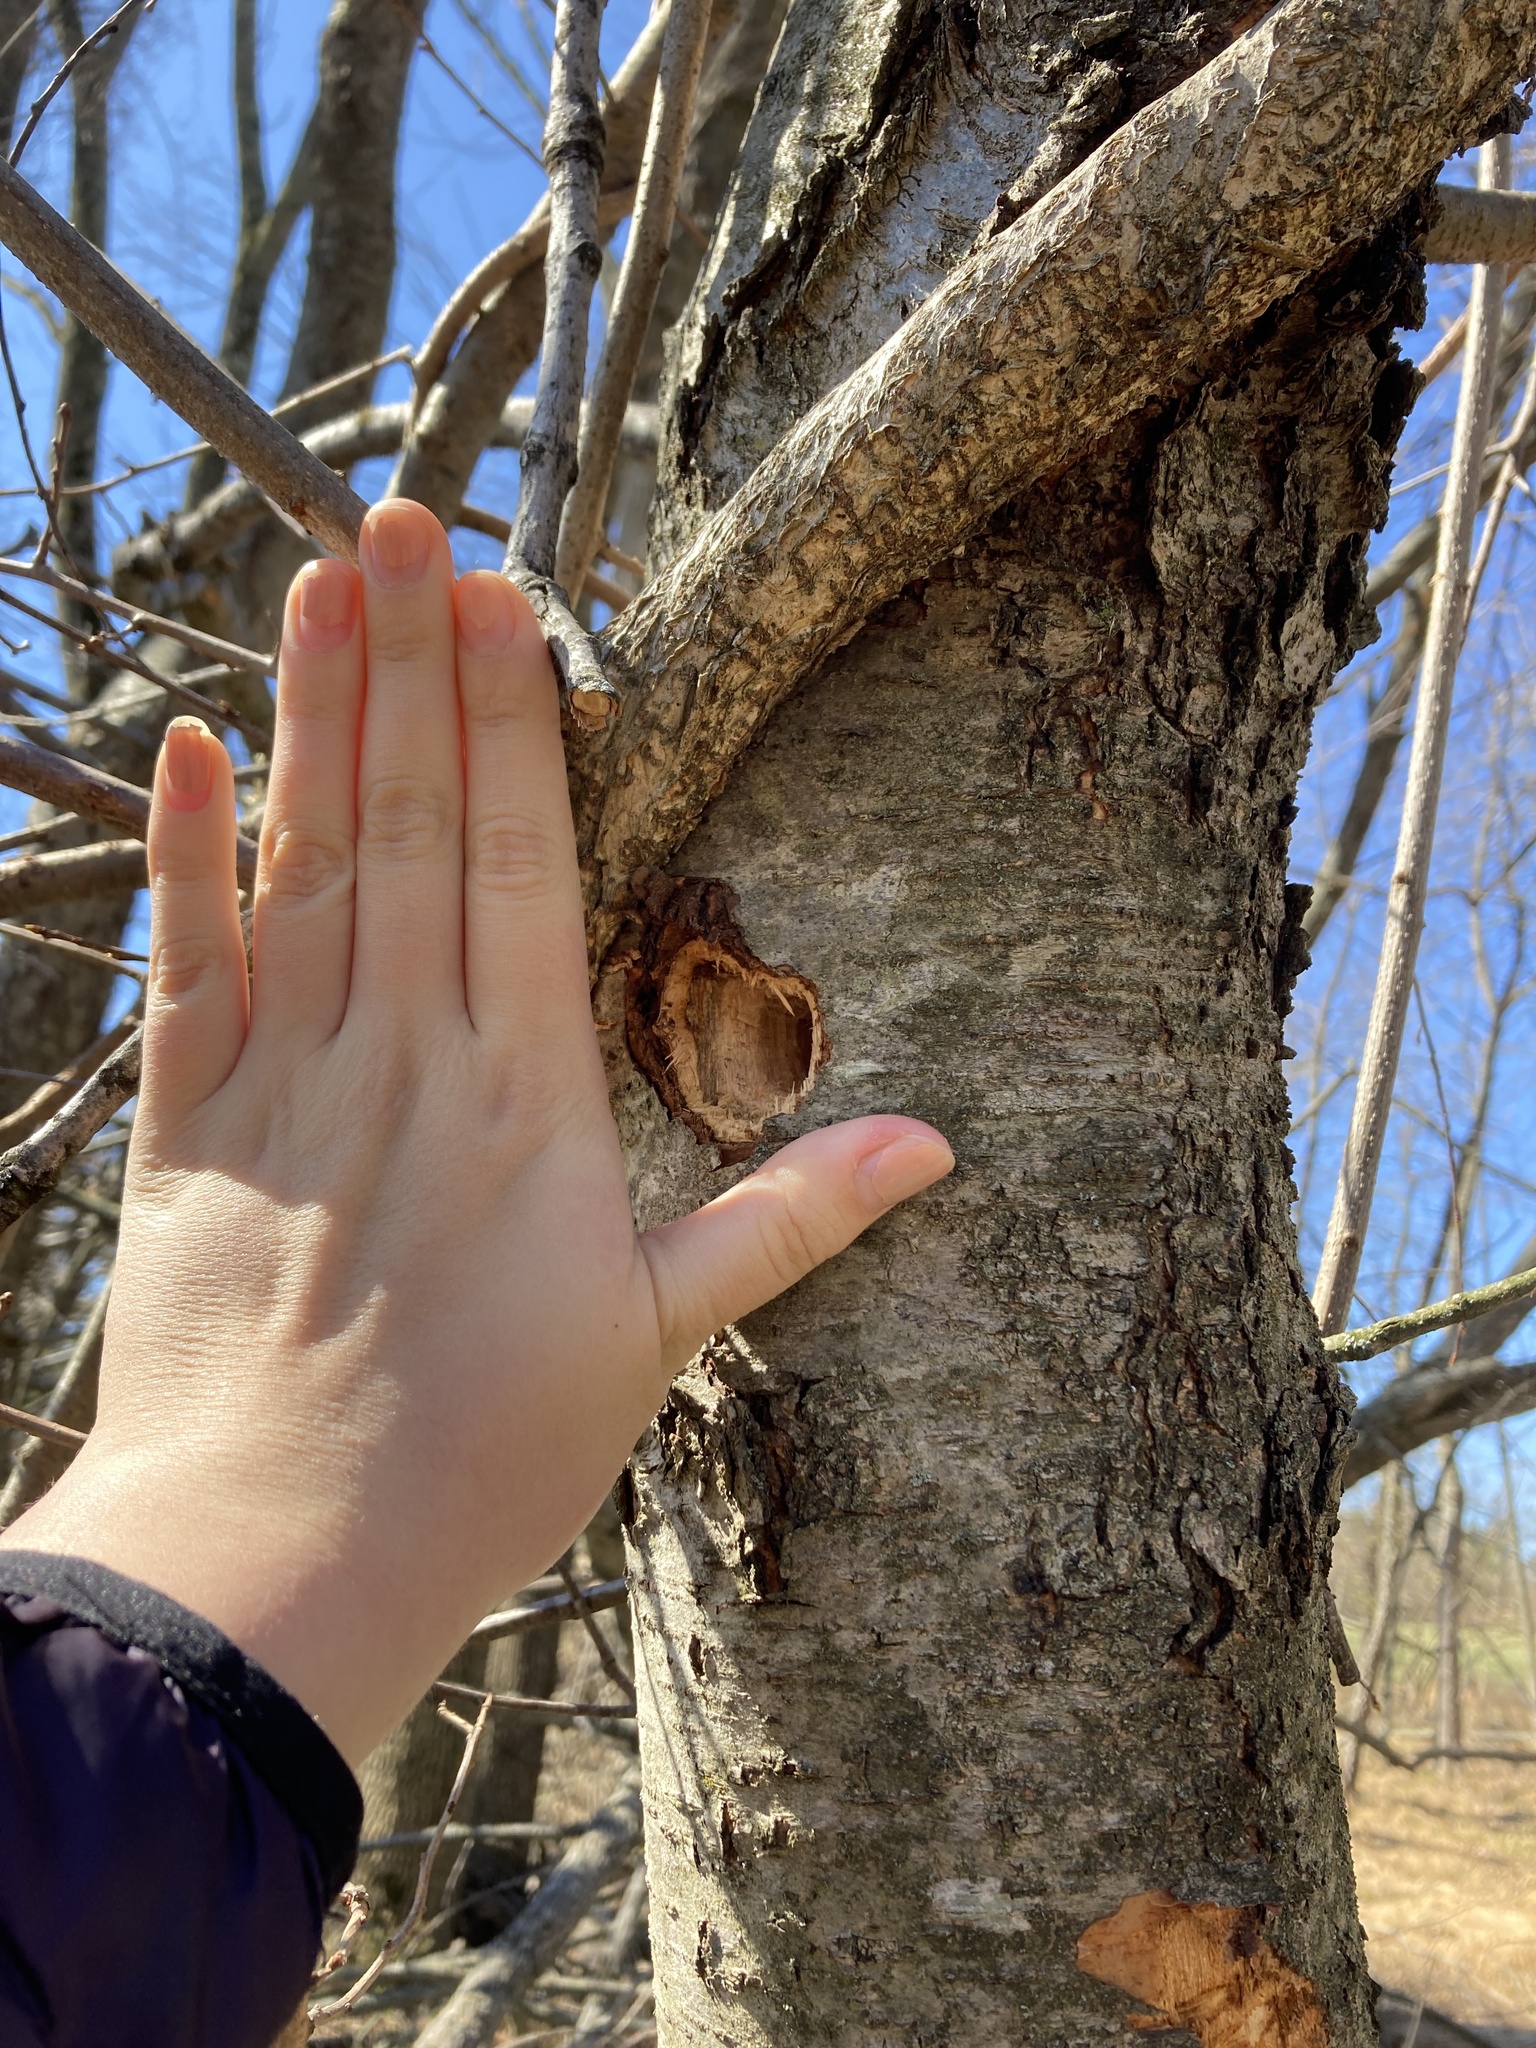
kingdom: Animalia
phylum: Chordata
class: Aves
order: Piciformes
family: Picidae
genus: Dryocopus
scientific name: Dryocopus pileatus
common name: Pileated woodpecker
